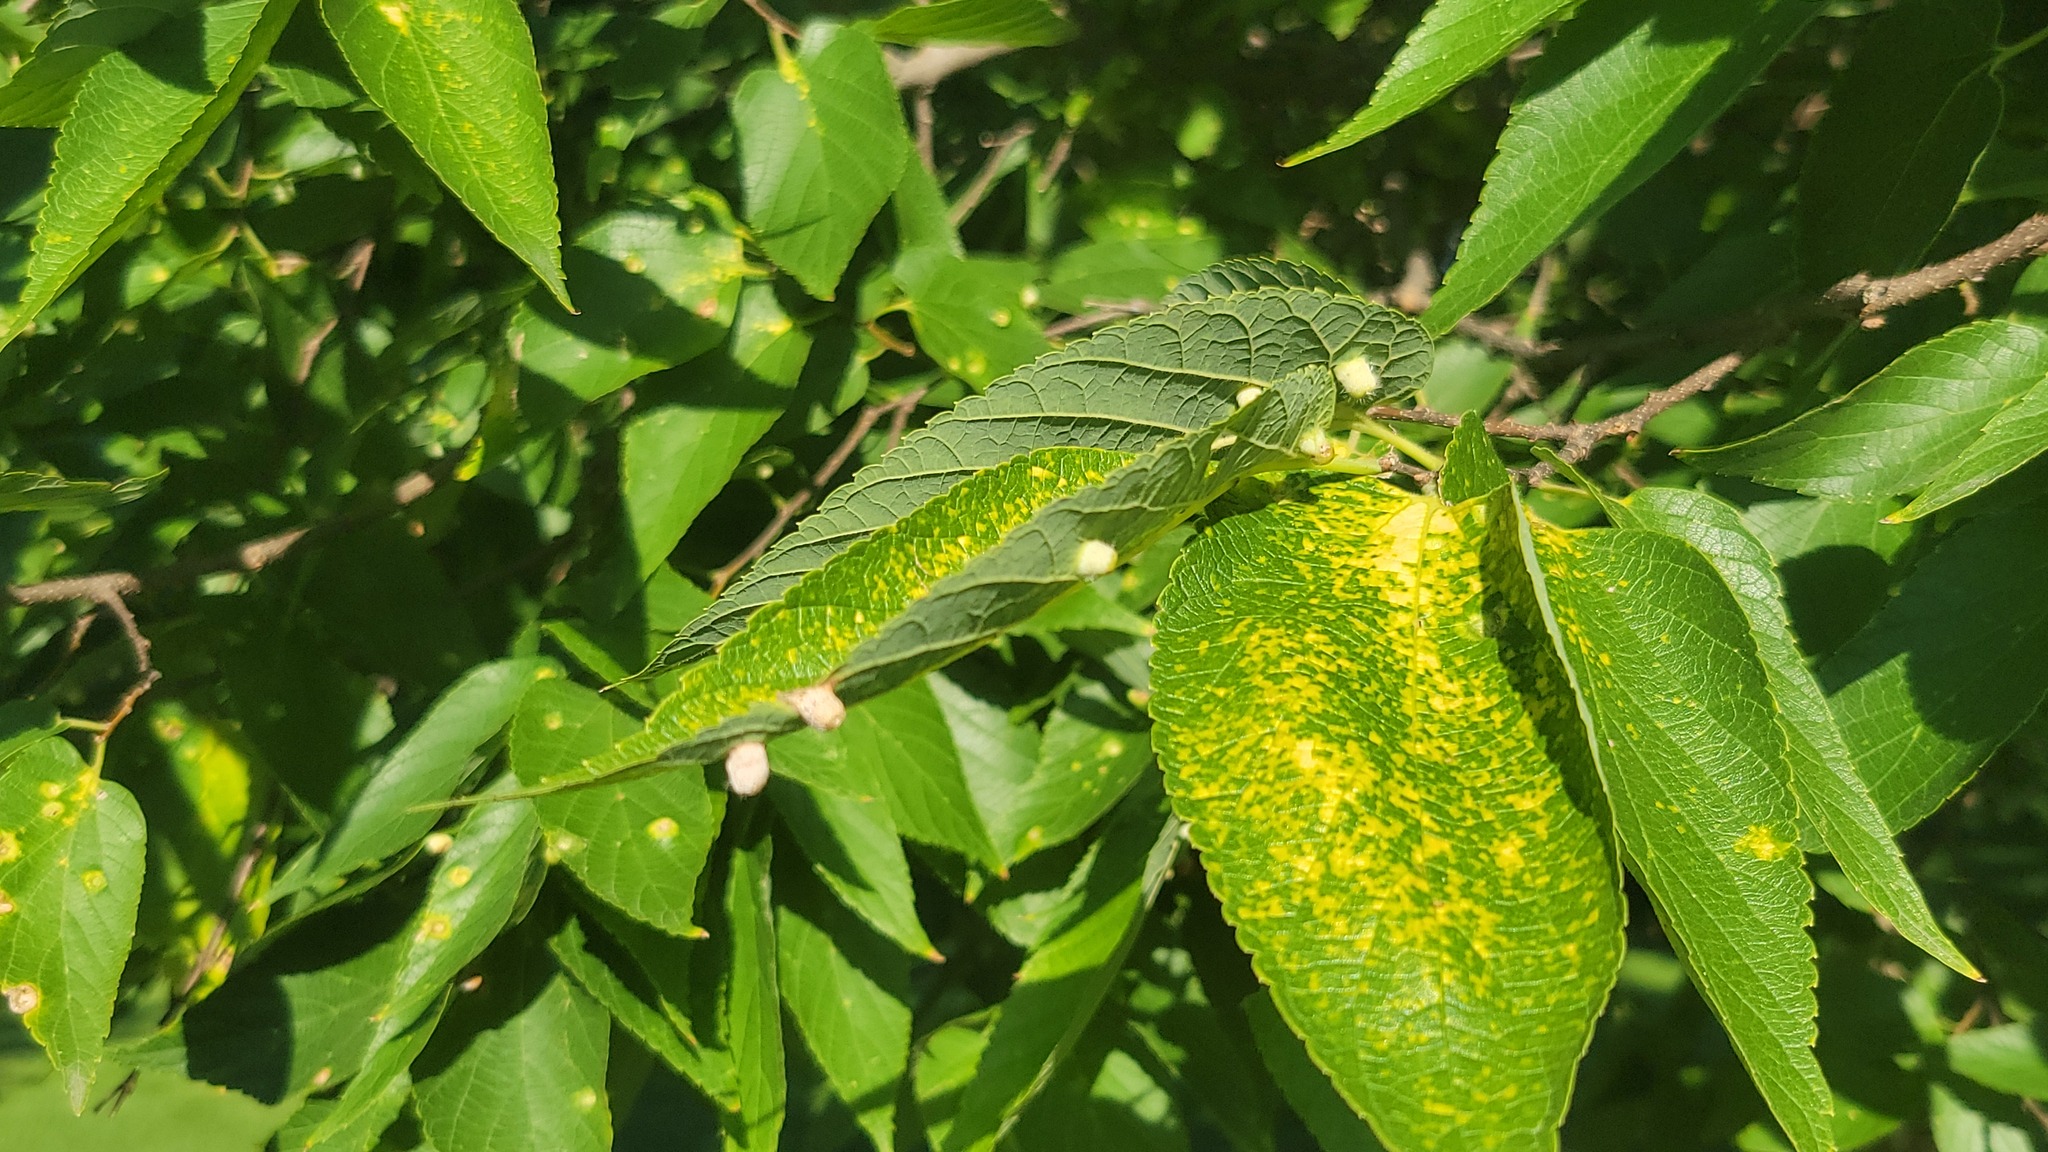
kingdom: Animalia
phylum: Arthropoda
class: Insecta
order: Hemiptera
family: Aphalaridae
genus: Pachypsylla
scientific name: Pachypsylla celtidismamma
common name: Hackberry nipplegall psyllid
